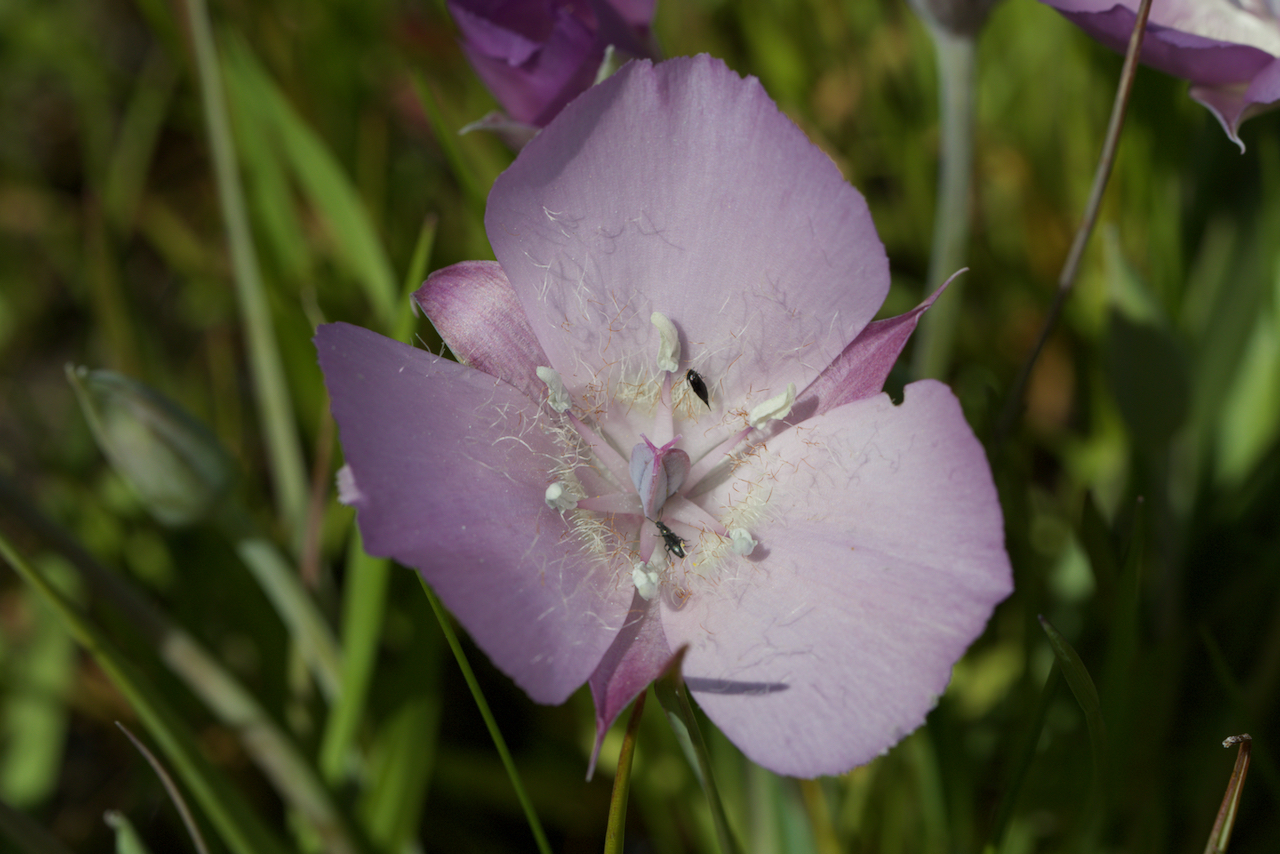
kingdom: Plantae
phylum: Tracheophyta
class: Liliopsida
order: Liliales
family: Liliaceae
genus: Calochortus
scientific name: Calochortus uniflorus
